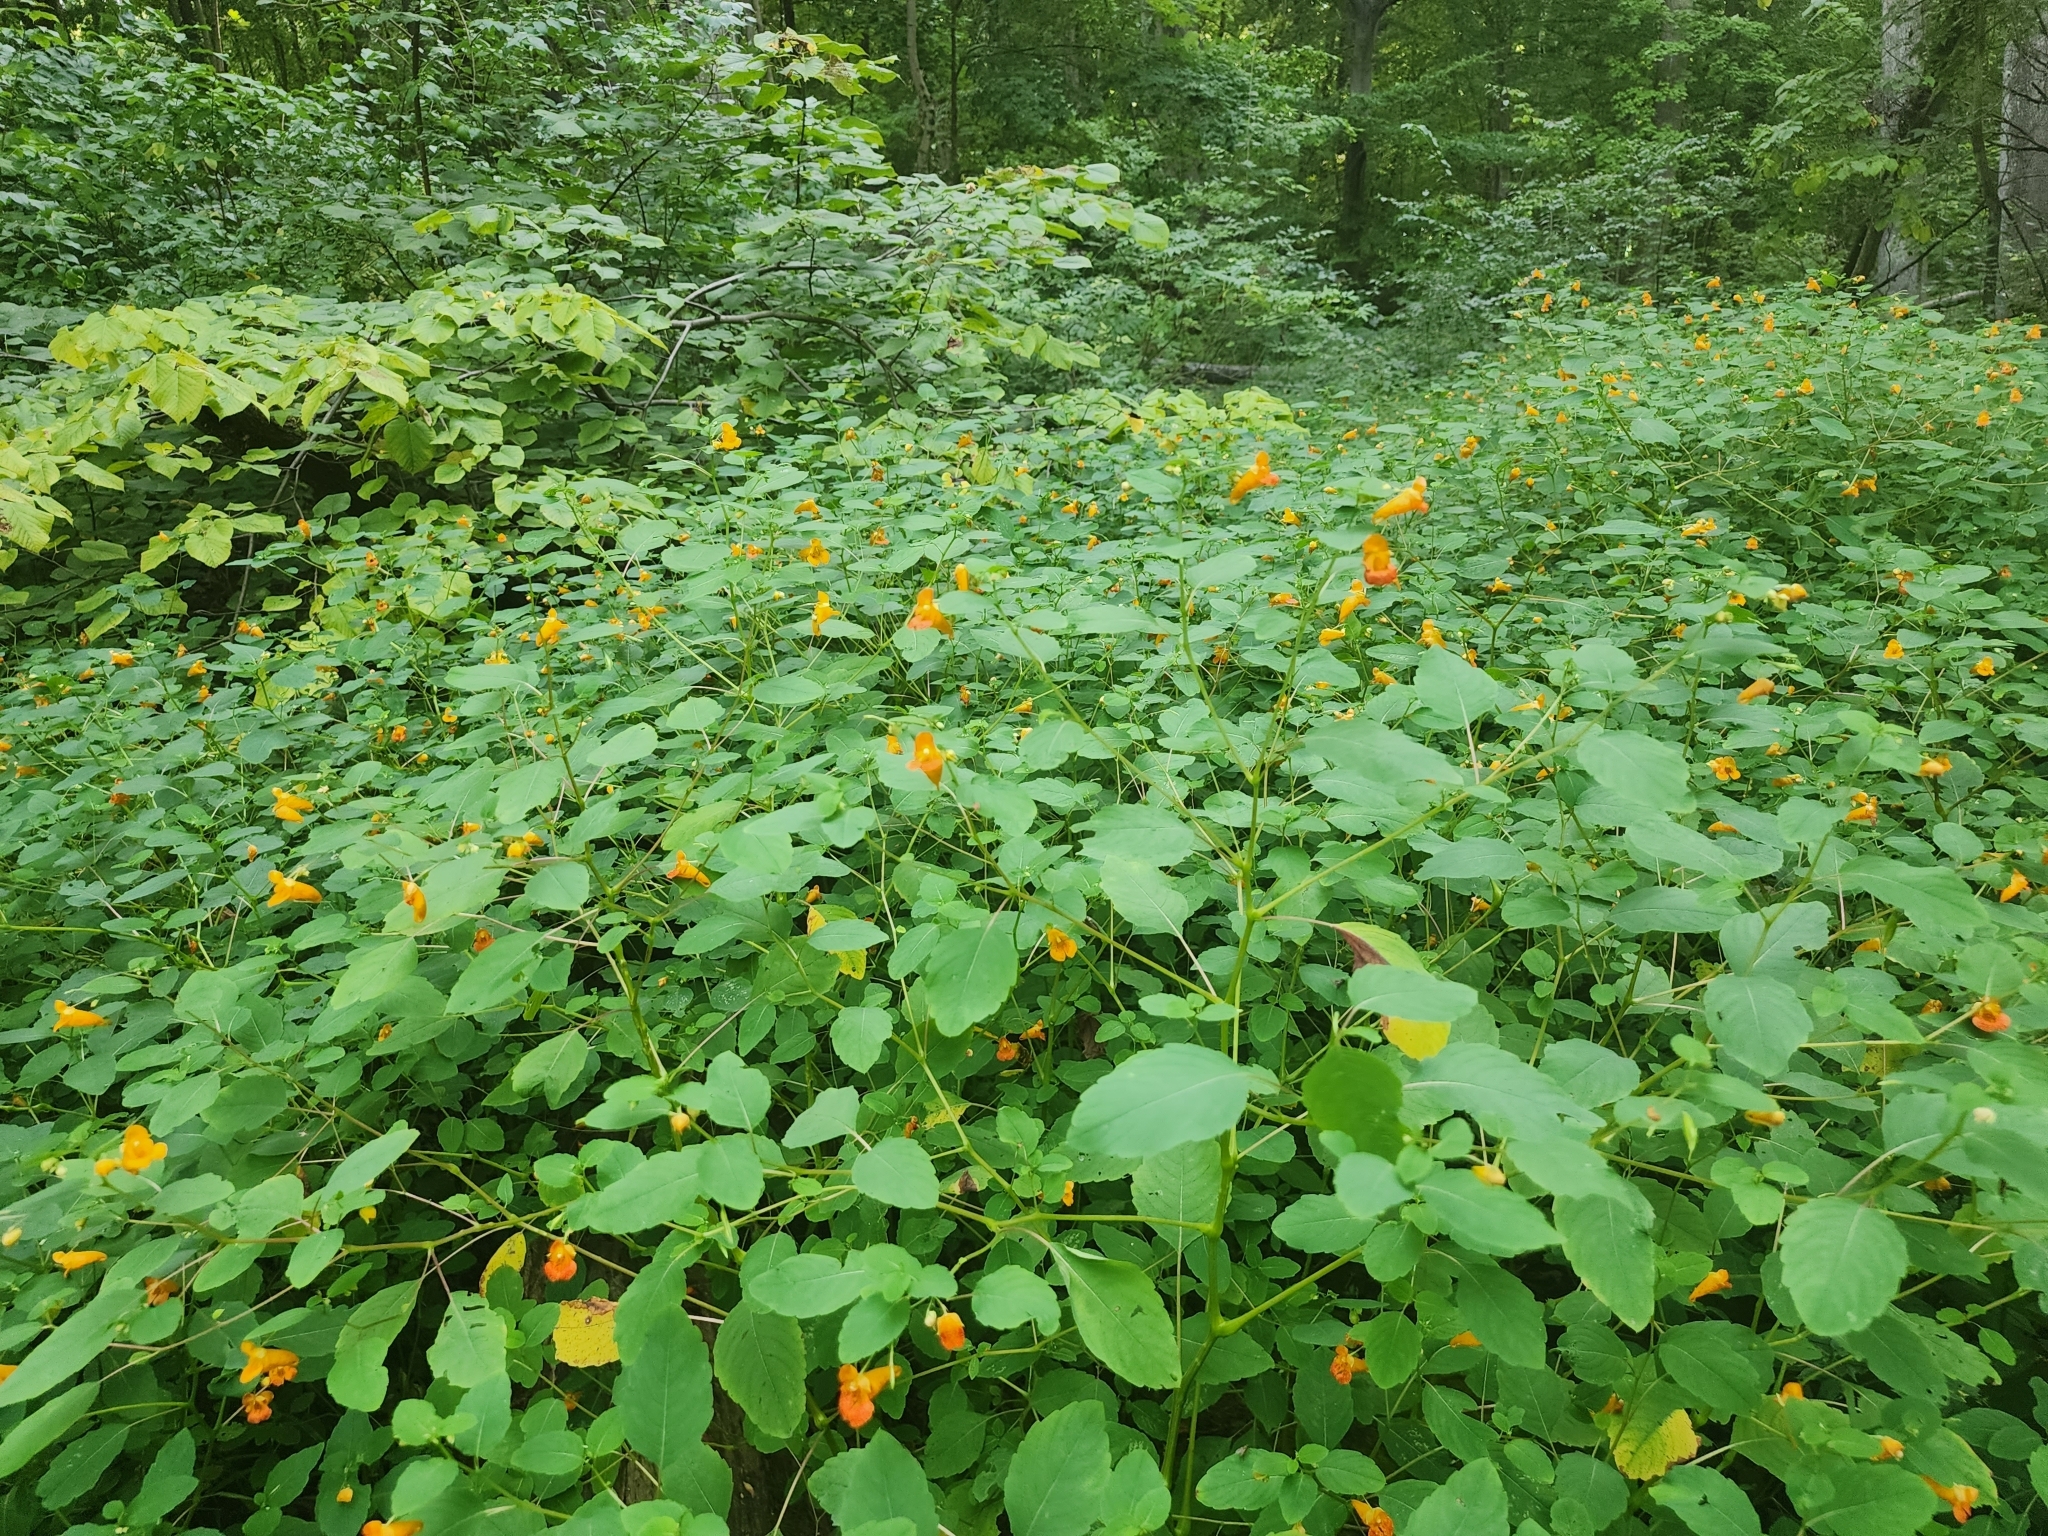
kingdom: Plantae
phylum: Tracheophyta
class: Magnoliopsida
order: Ericales
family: Balsaminaceae
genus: Impatiens
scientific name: Impatiens capensis
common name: Orange balsam
